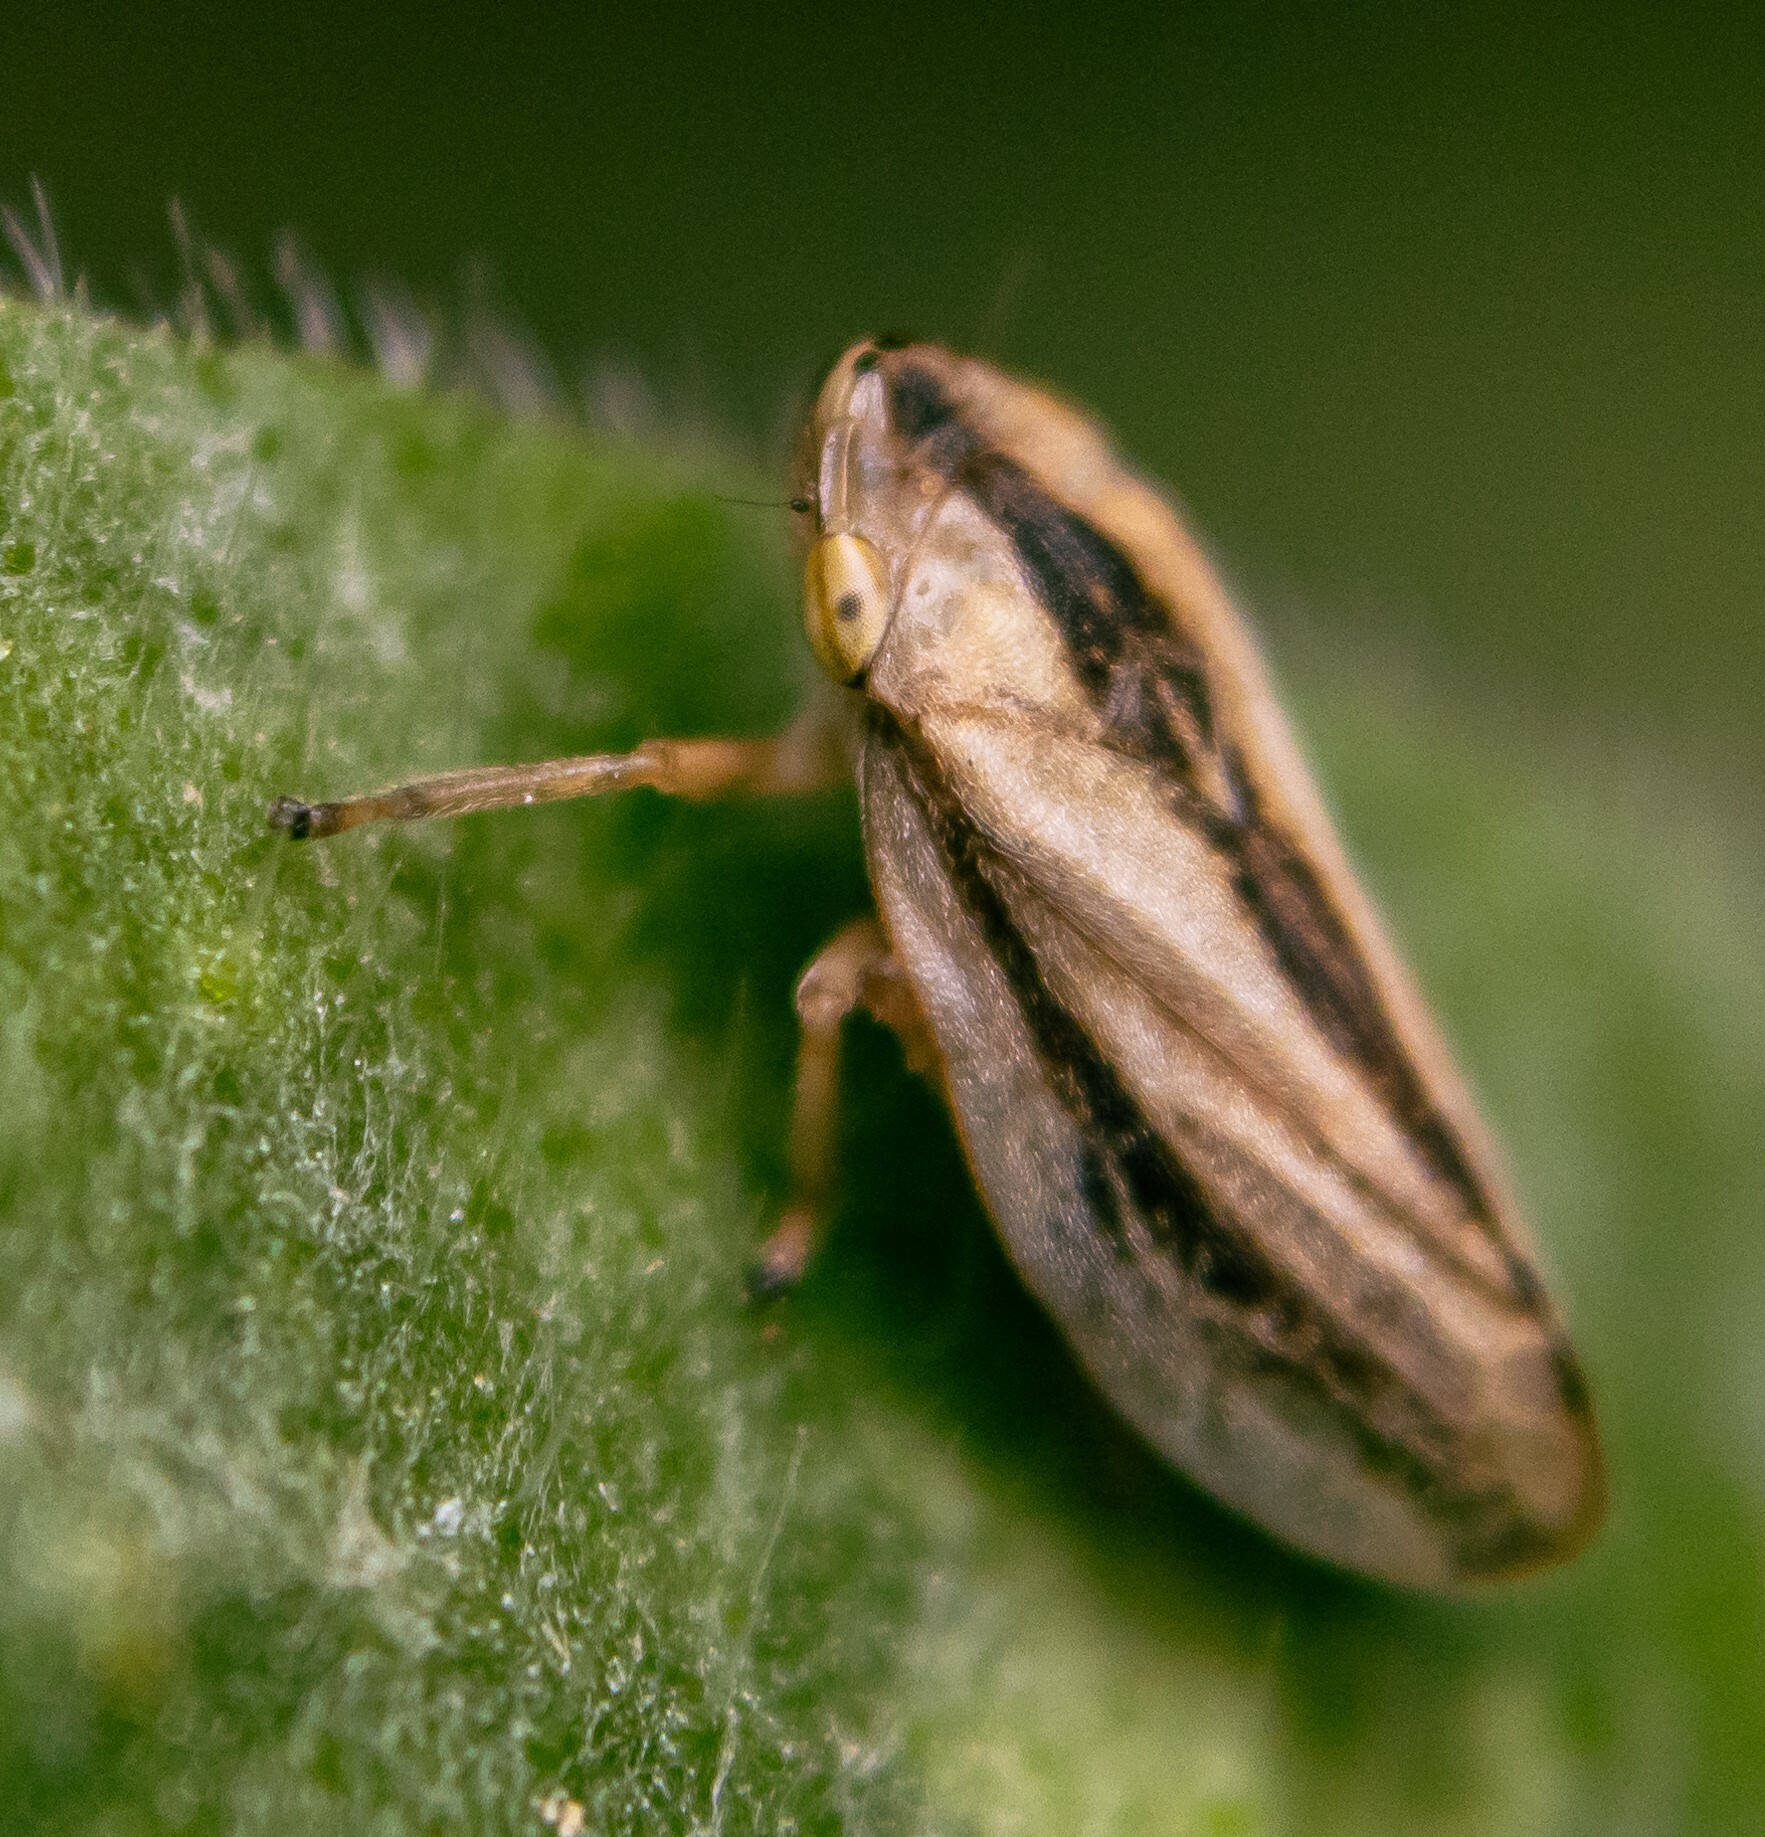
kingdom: Animalia
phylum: Arthropoda
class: Insecta
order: Hemiptera
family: Aphrophoridae
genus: Philaenus
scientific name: Philaenus spumarius
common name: Meadow spittlebug
